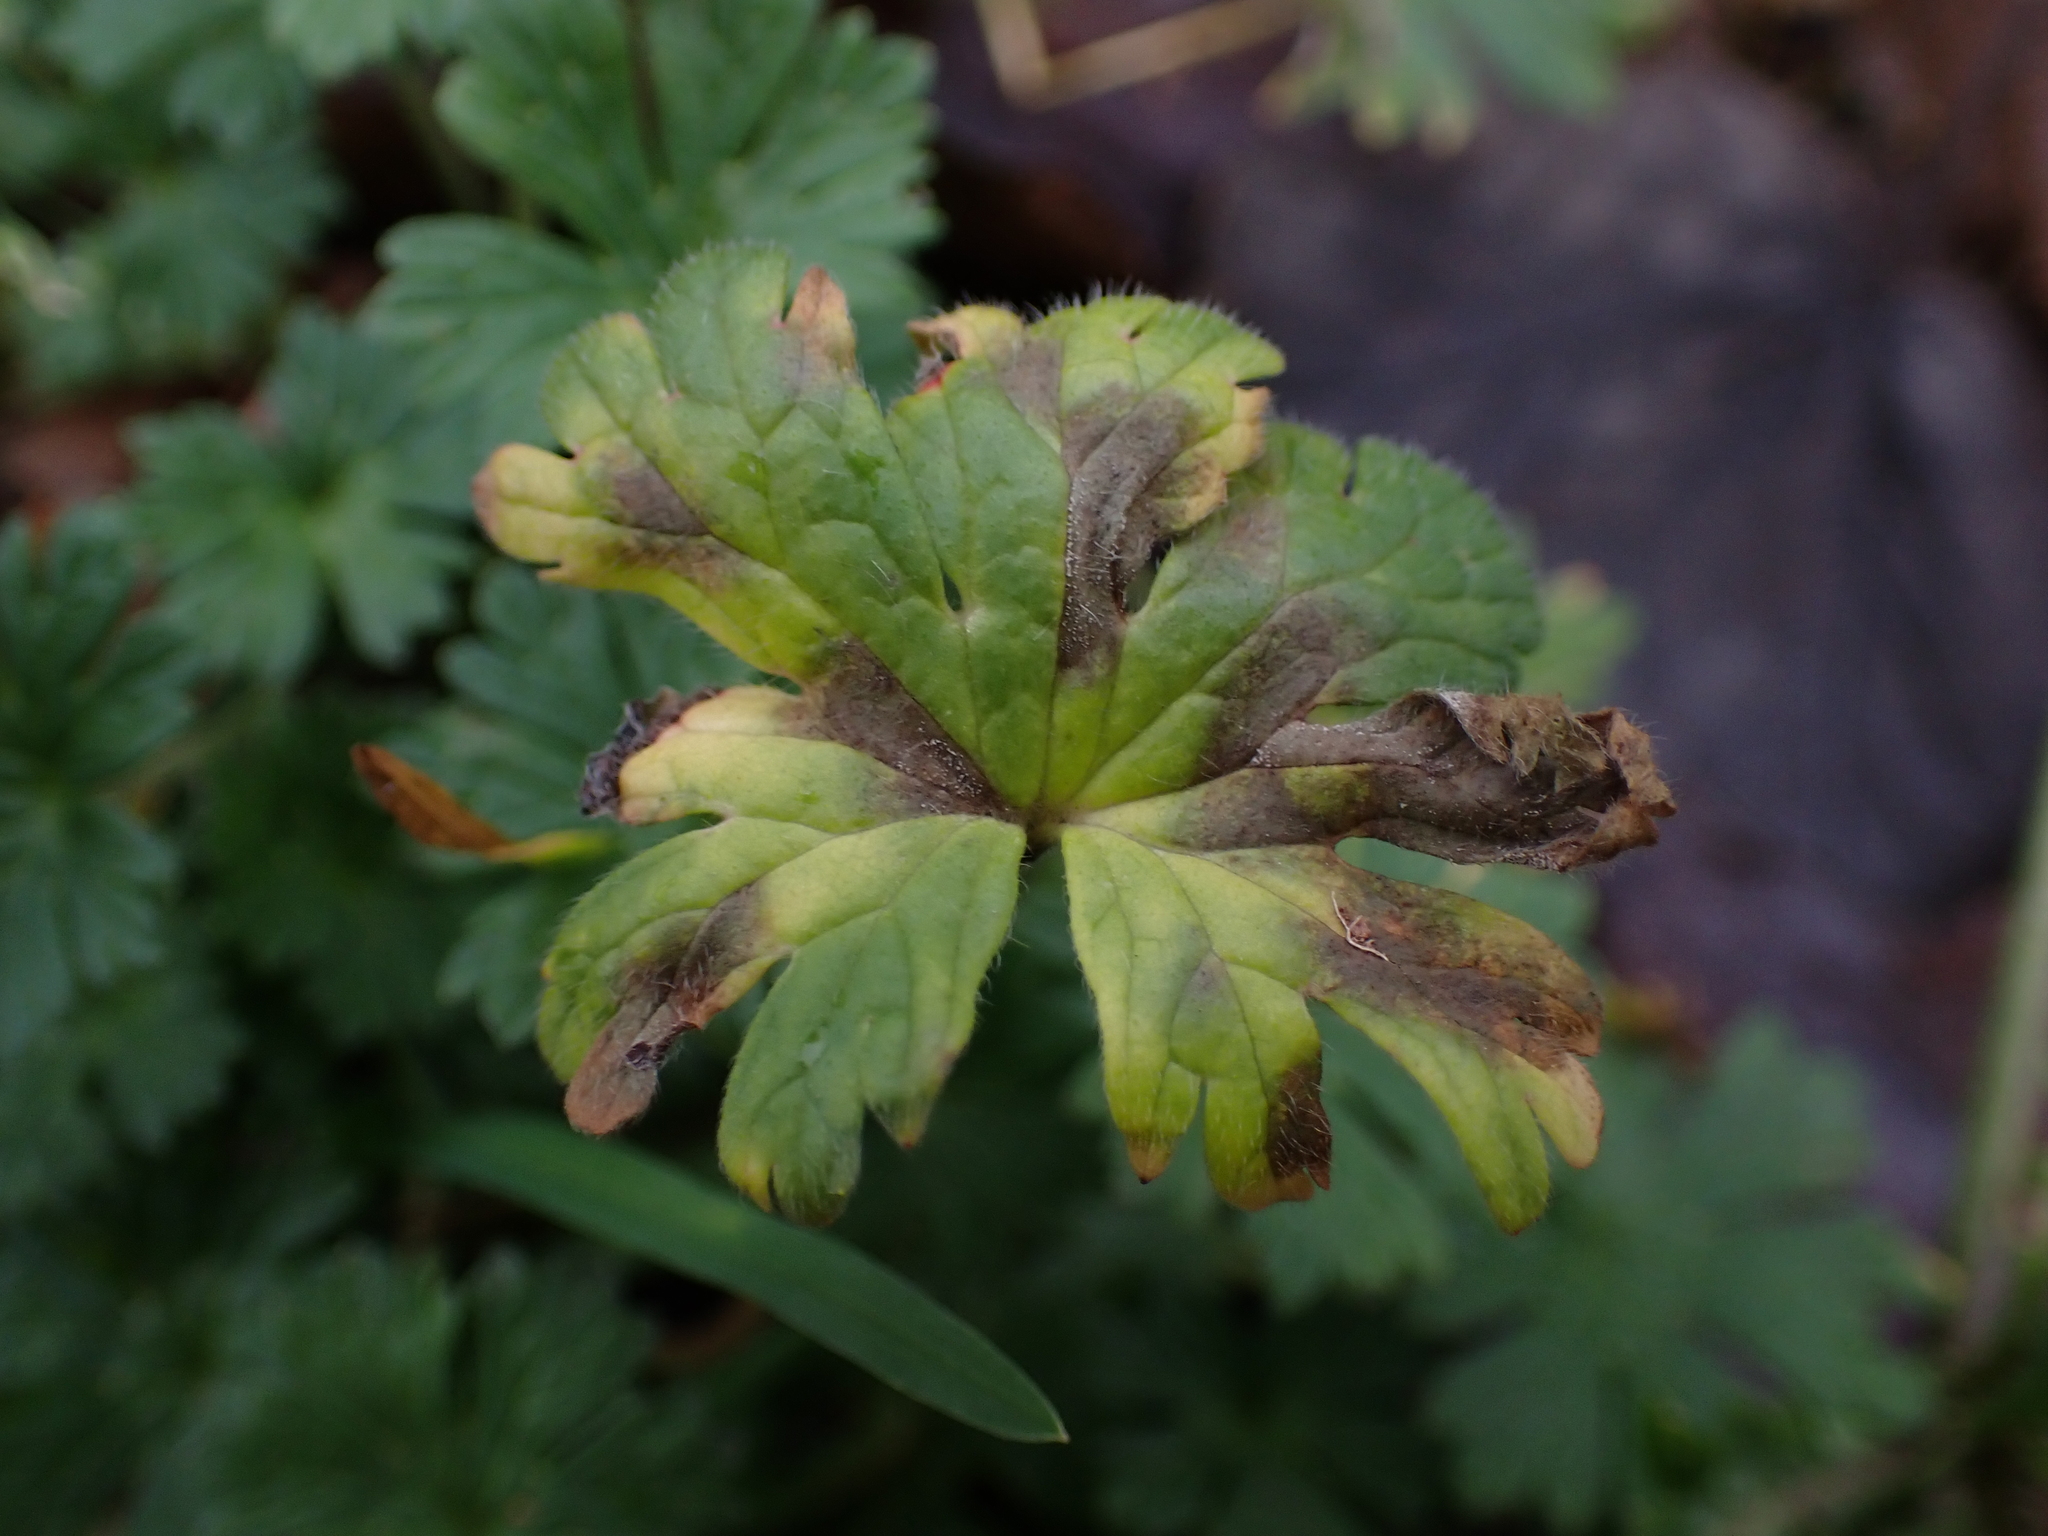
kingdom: Fungi
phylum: Ascomycota
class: Dothideomycetes
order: Mycosphaerellales
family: Mycosphaerellaceae
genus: Ramularia
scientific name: Ramularia geranii
